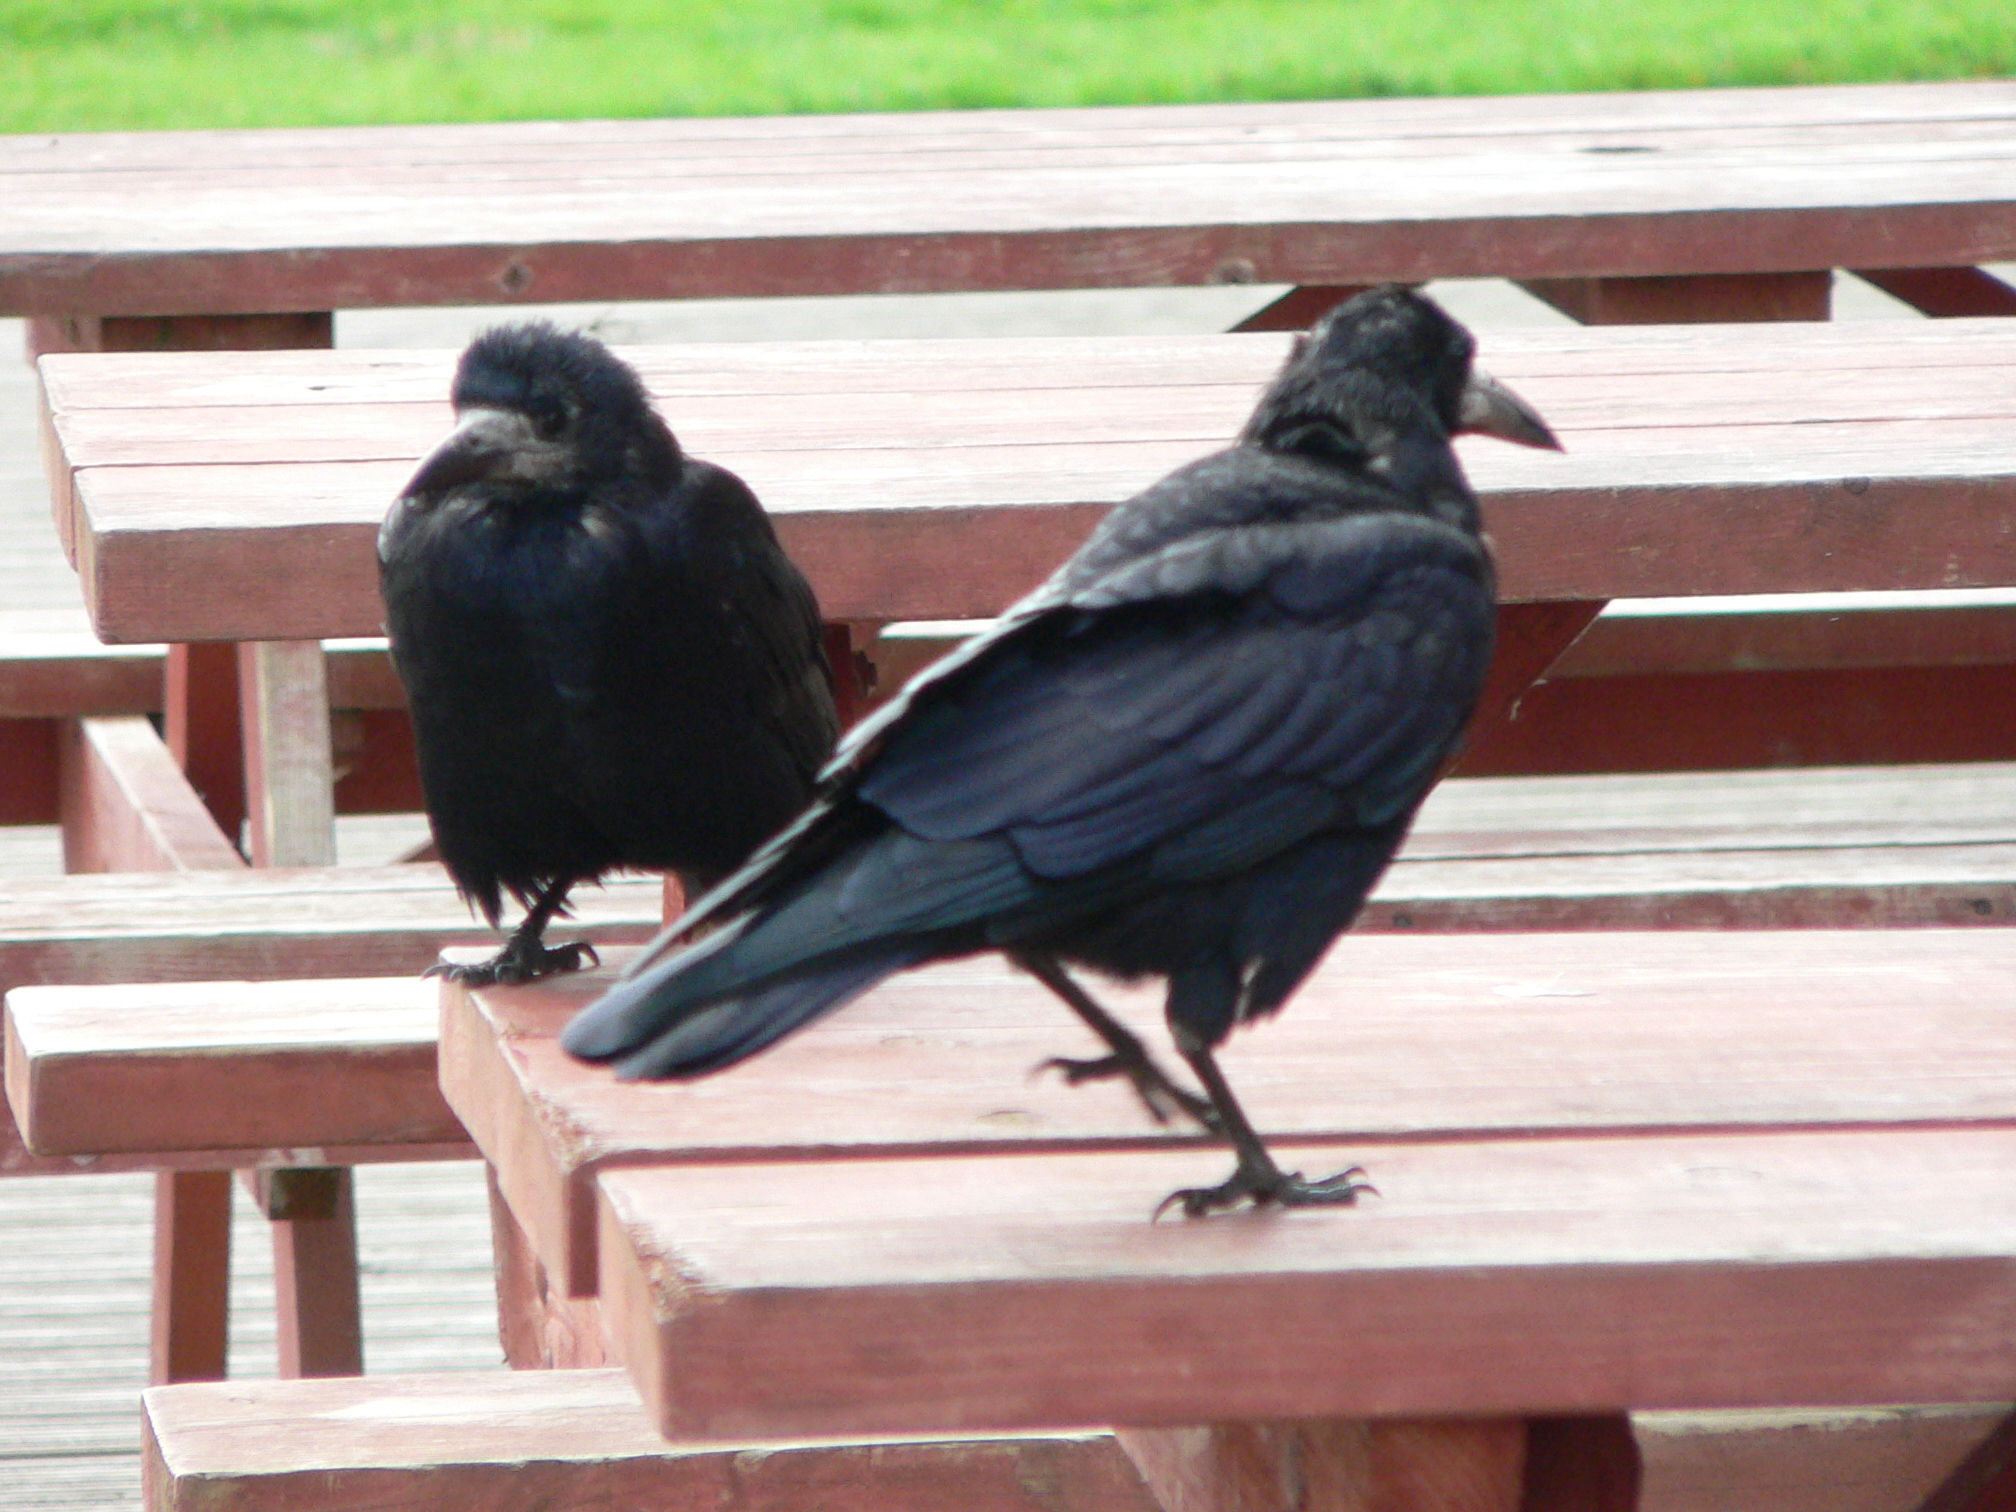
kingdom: Animalia
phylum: Chordata
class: Aves
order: Passeriformes
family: Corvidae
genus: Corvus
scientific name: Corvus frugilegus
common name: Rook
